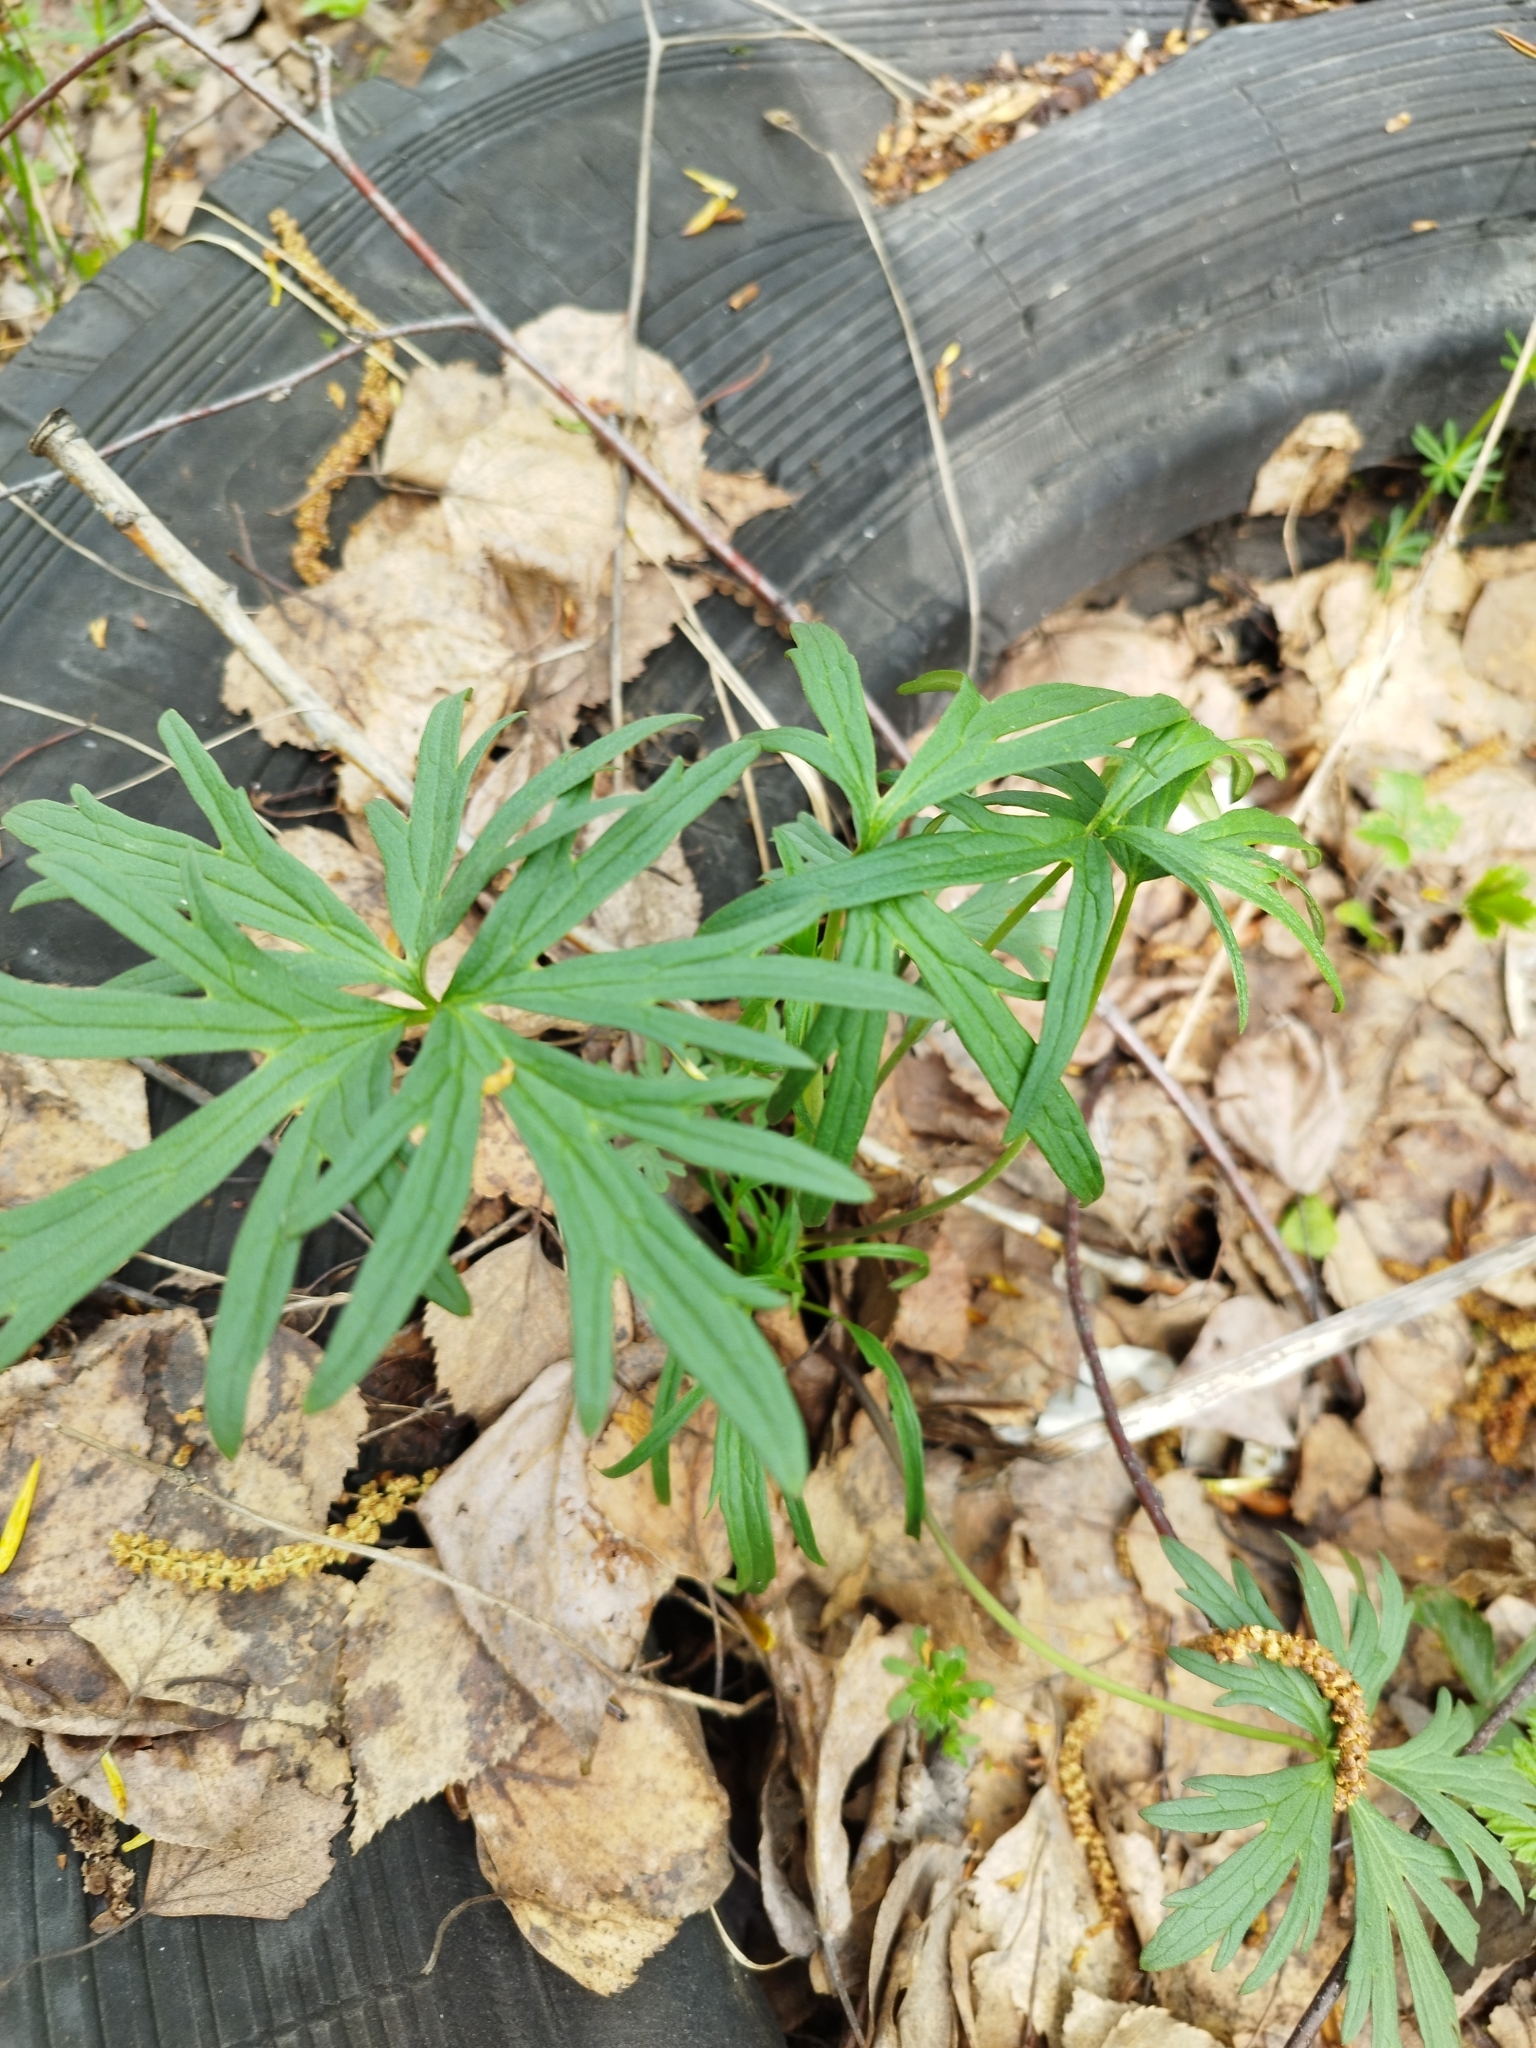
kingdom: Plantae
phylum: Tracheophyta
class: Magnoliopsida
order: Ranunculales
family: Ranunculaceae
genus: Ranunculus
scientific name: Ranunculus acris
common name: Meadow buttercup
